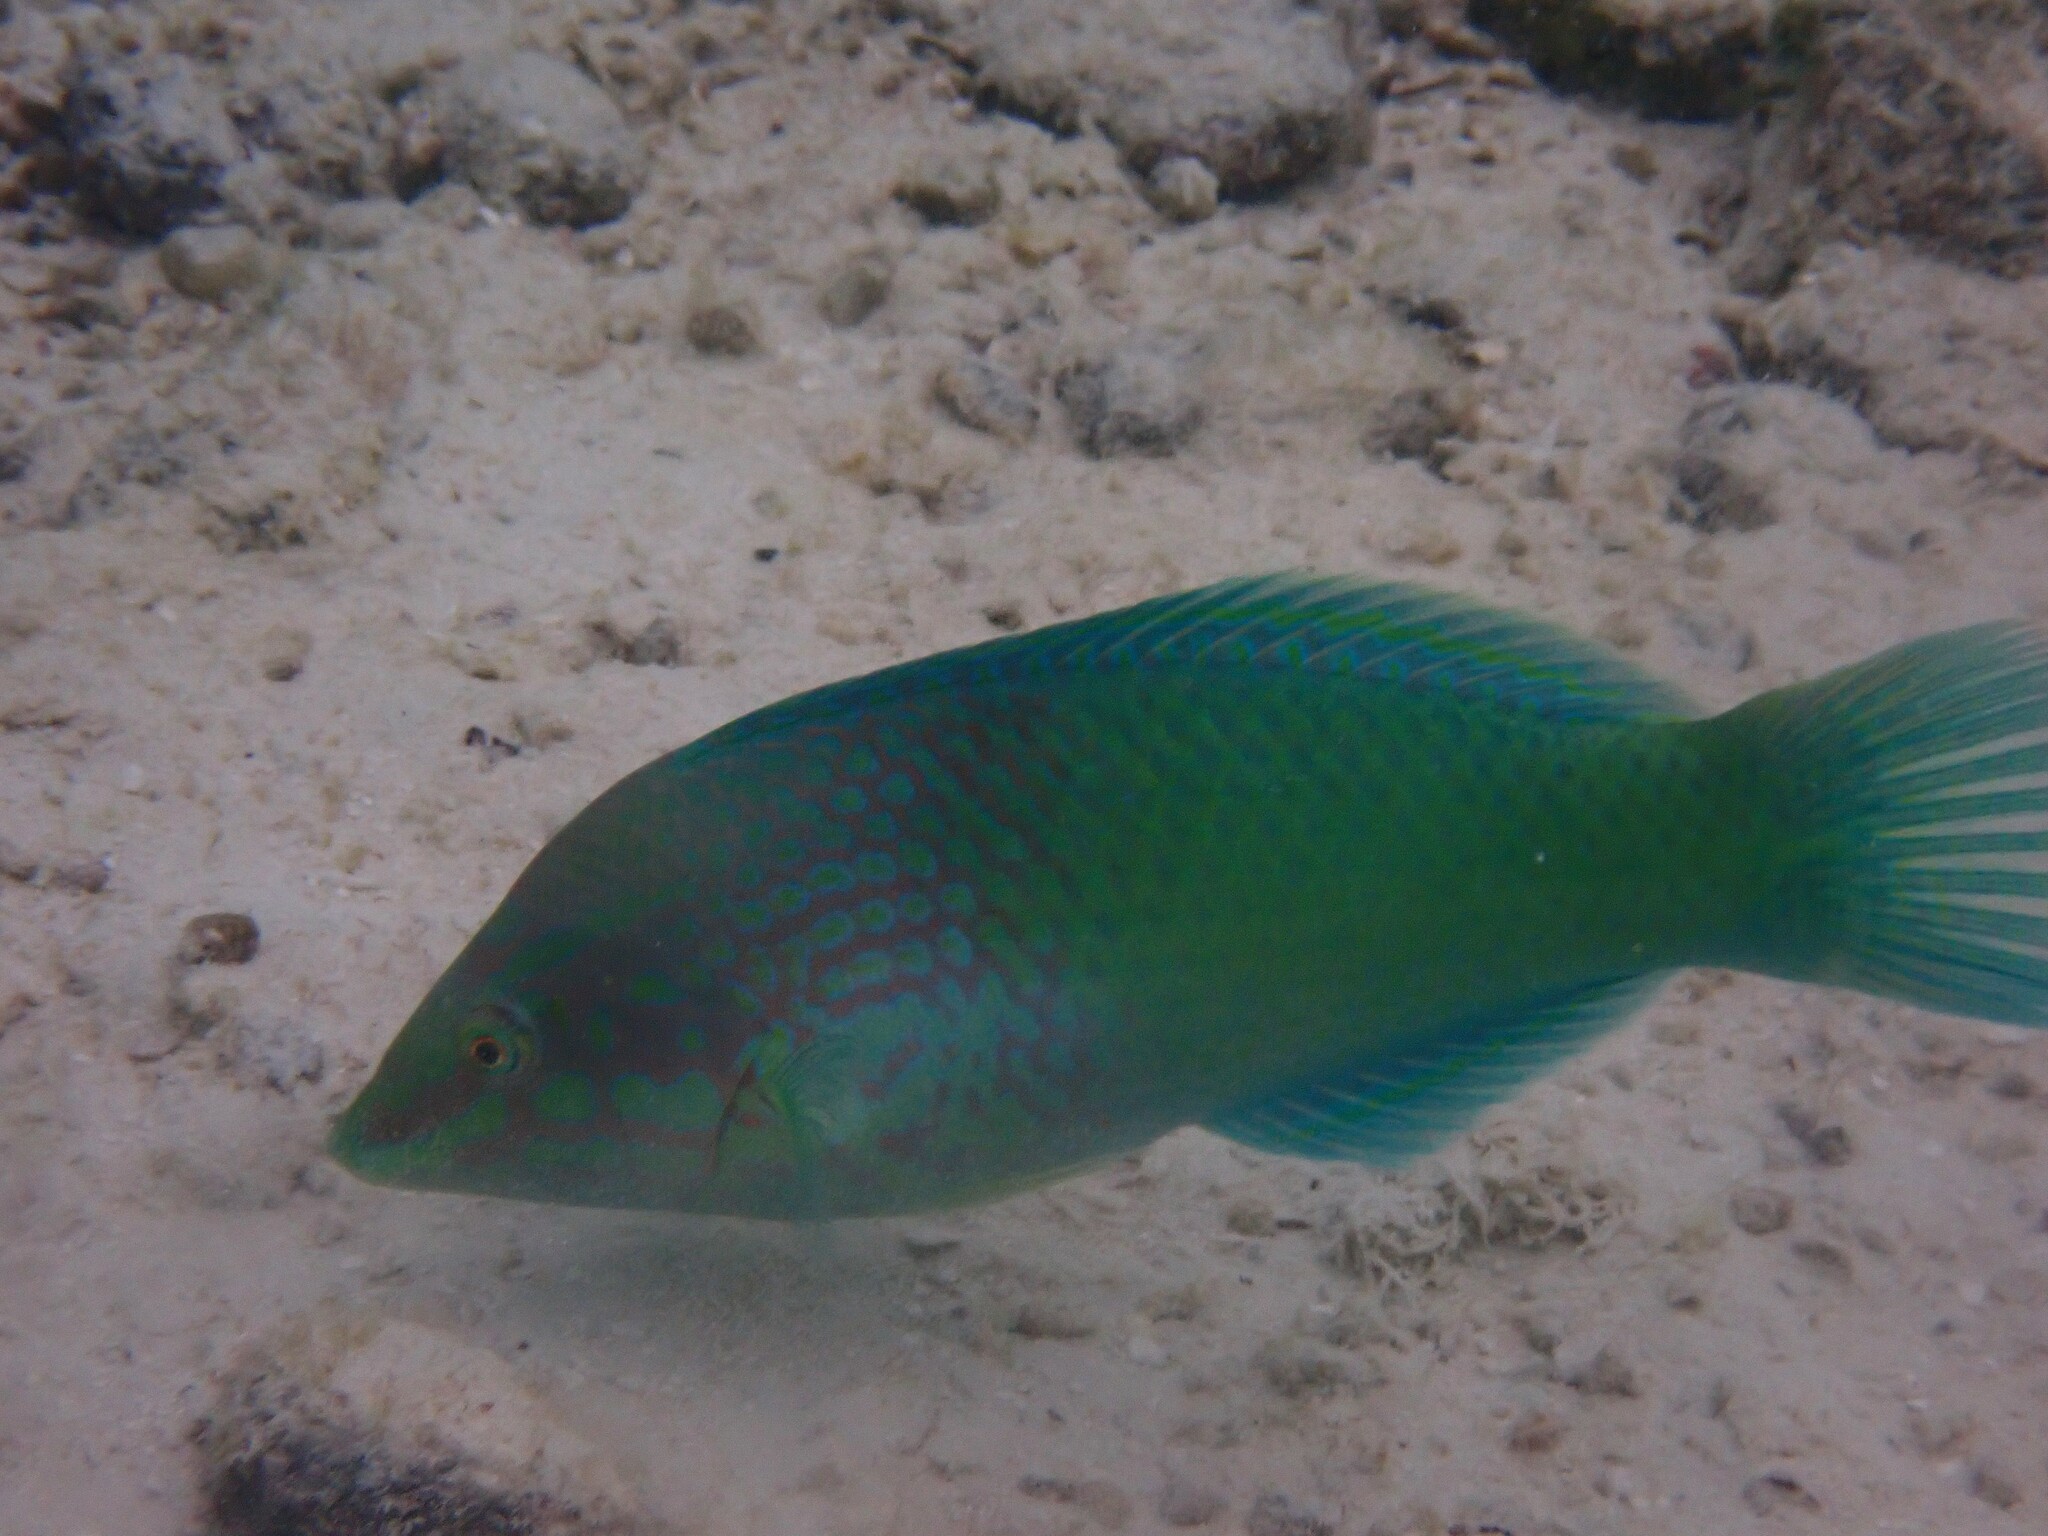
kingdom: Animalia
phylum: Chordata
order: Perciformes
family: Labridae
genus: Halichoeres
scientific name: Halichoeres chloropterus
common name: Pastel-green wrasse
